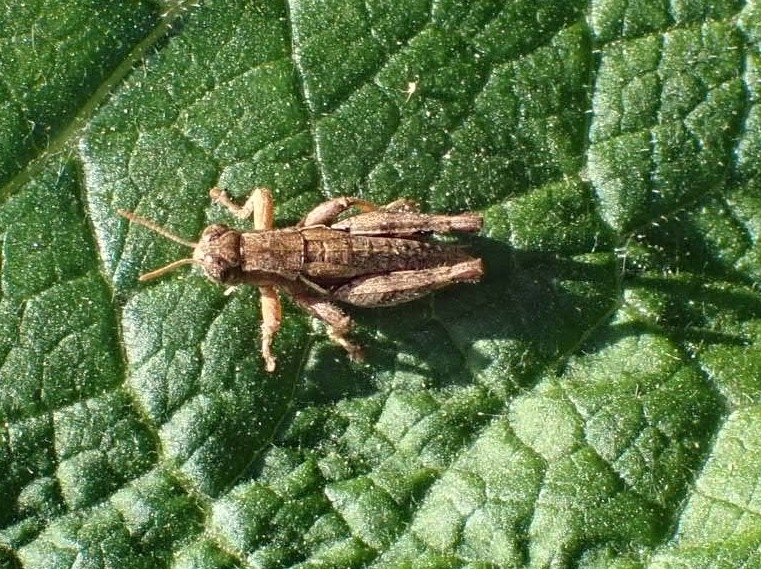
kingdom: Animalia
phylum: Arthropoda
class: Insecta
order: Orthoptera
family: Acrididae
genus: Pezotettix
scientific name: Pezotettix giornae
